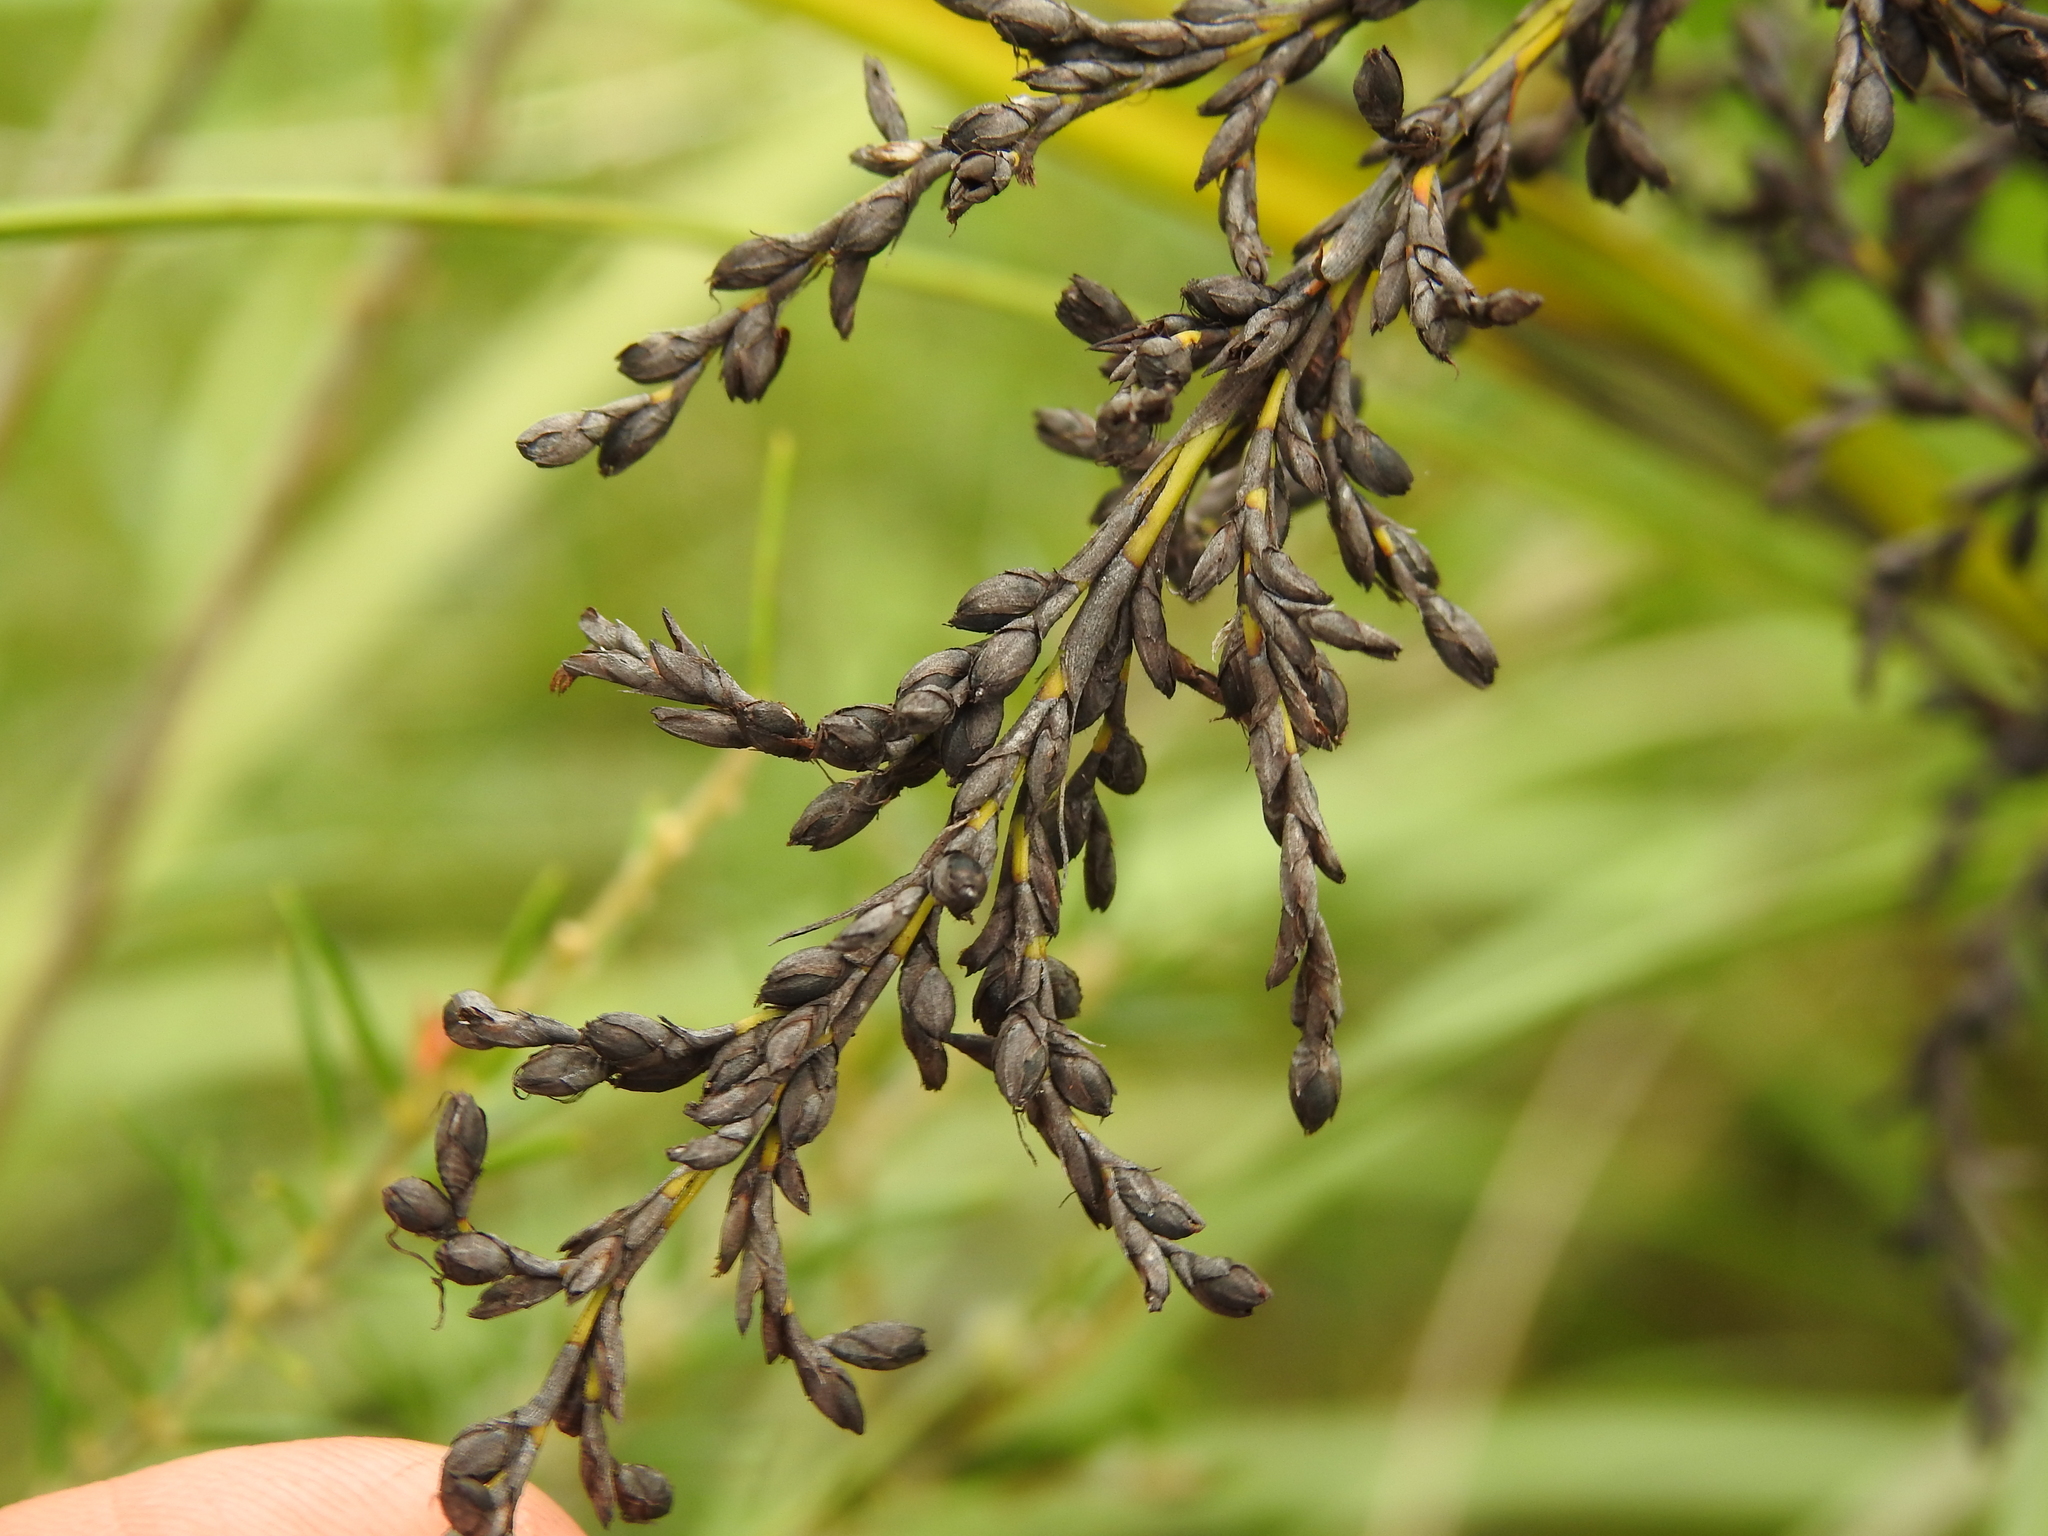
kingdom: Plantae
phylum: Tracheophyta
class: Liliopsida
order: Poales
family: Cyperaceae
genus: Gahnia
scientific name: Gahnia sieberiana
